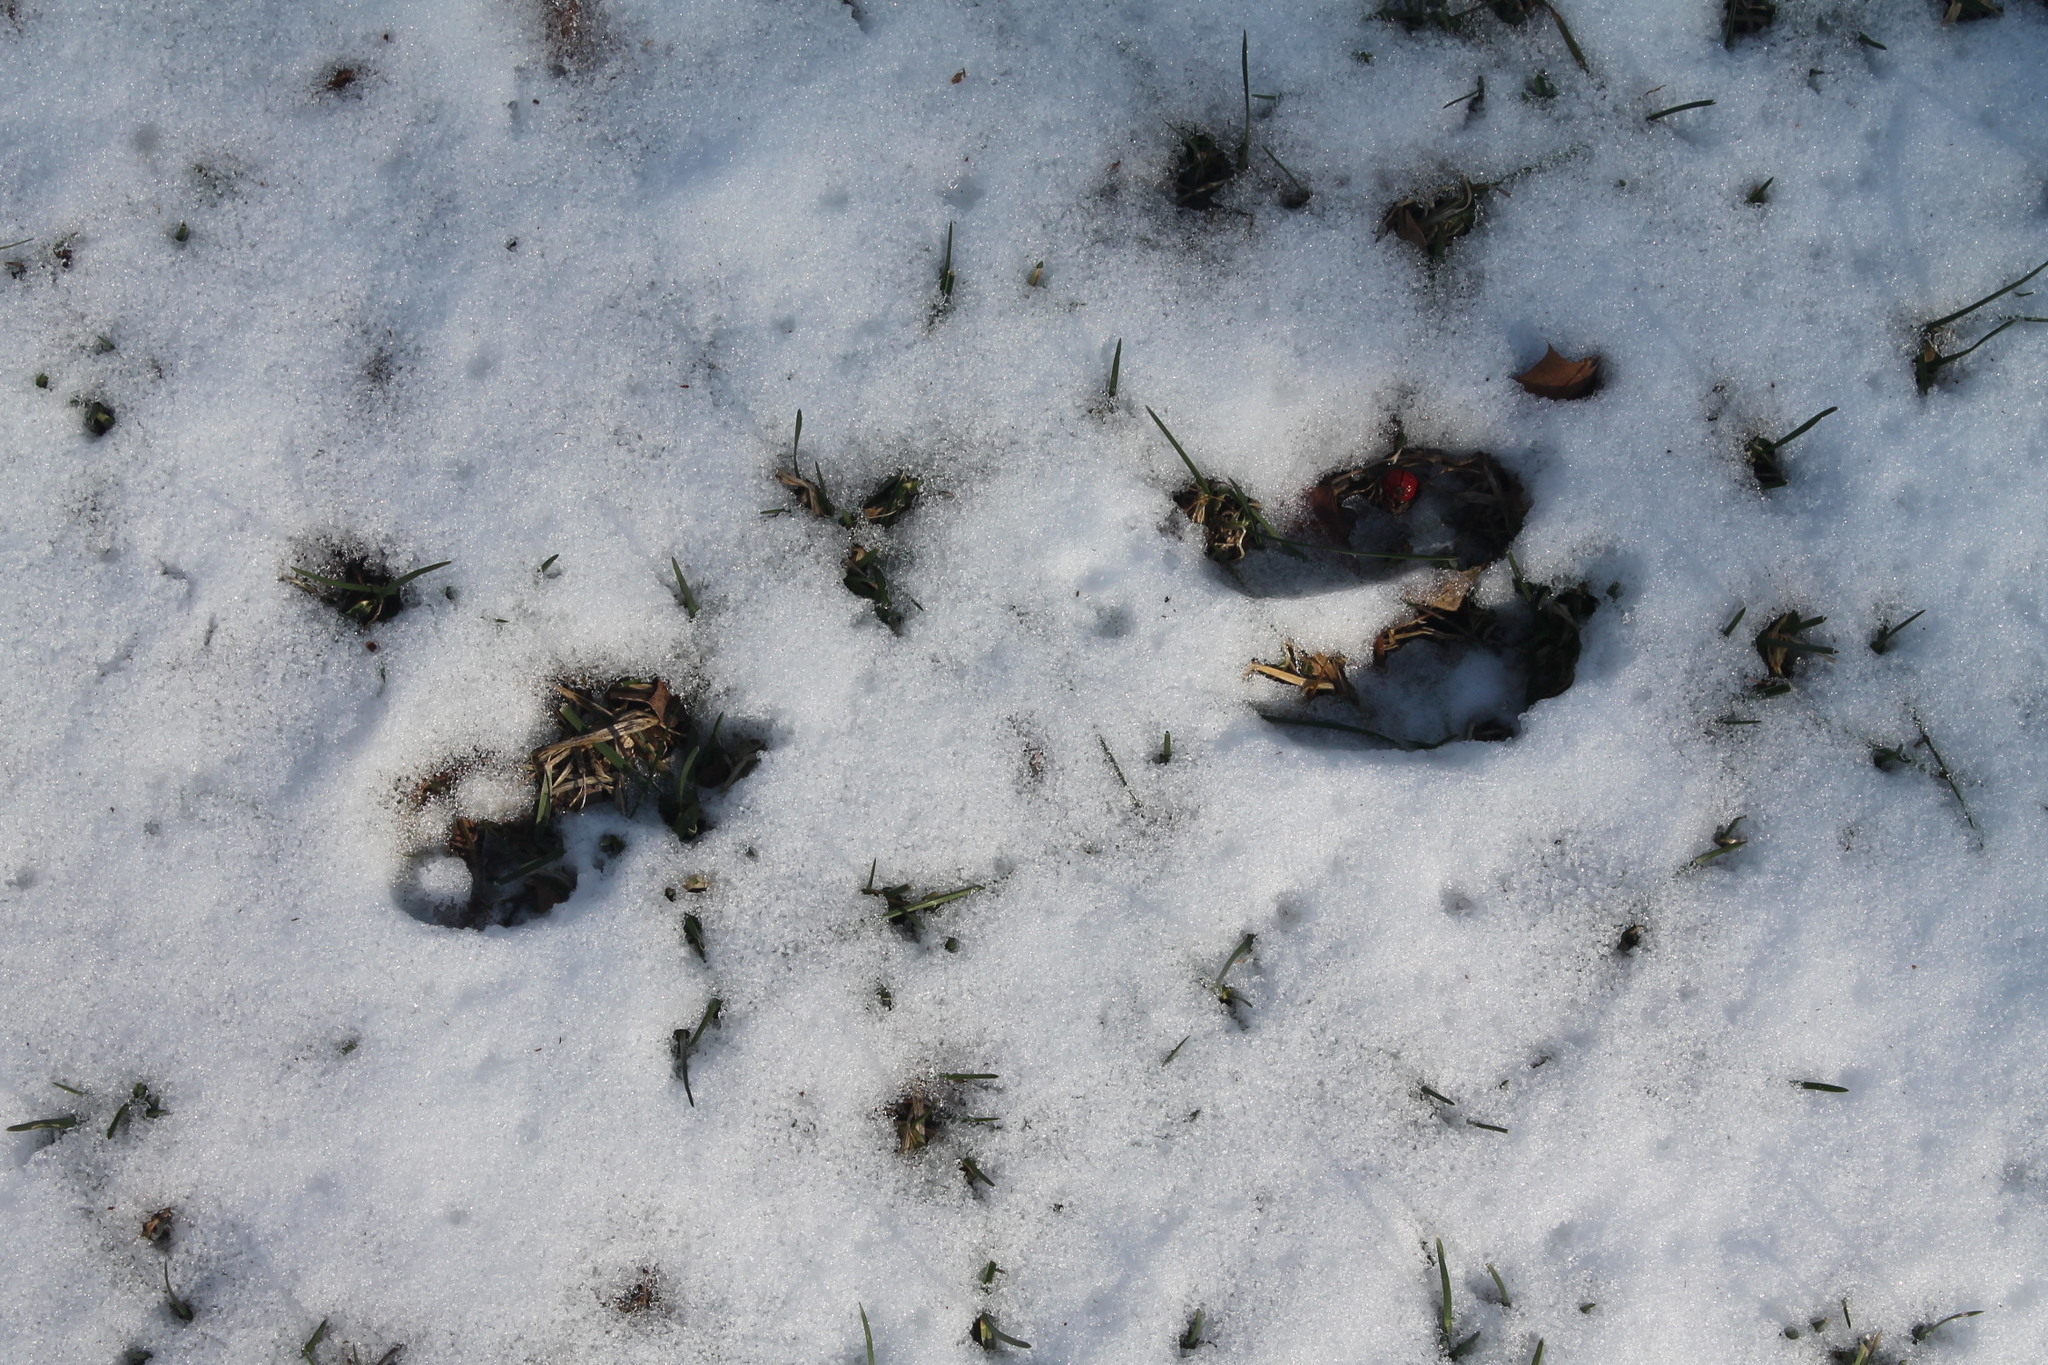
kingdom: Animalia
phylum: Chordata
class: Mammalia
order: Lagomorpha
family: Leporidae
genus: Sylvilagus
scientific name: Sylvilagus floridanus
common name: Eastern cottontail
